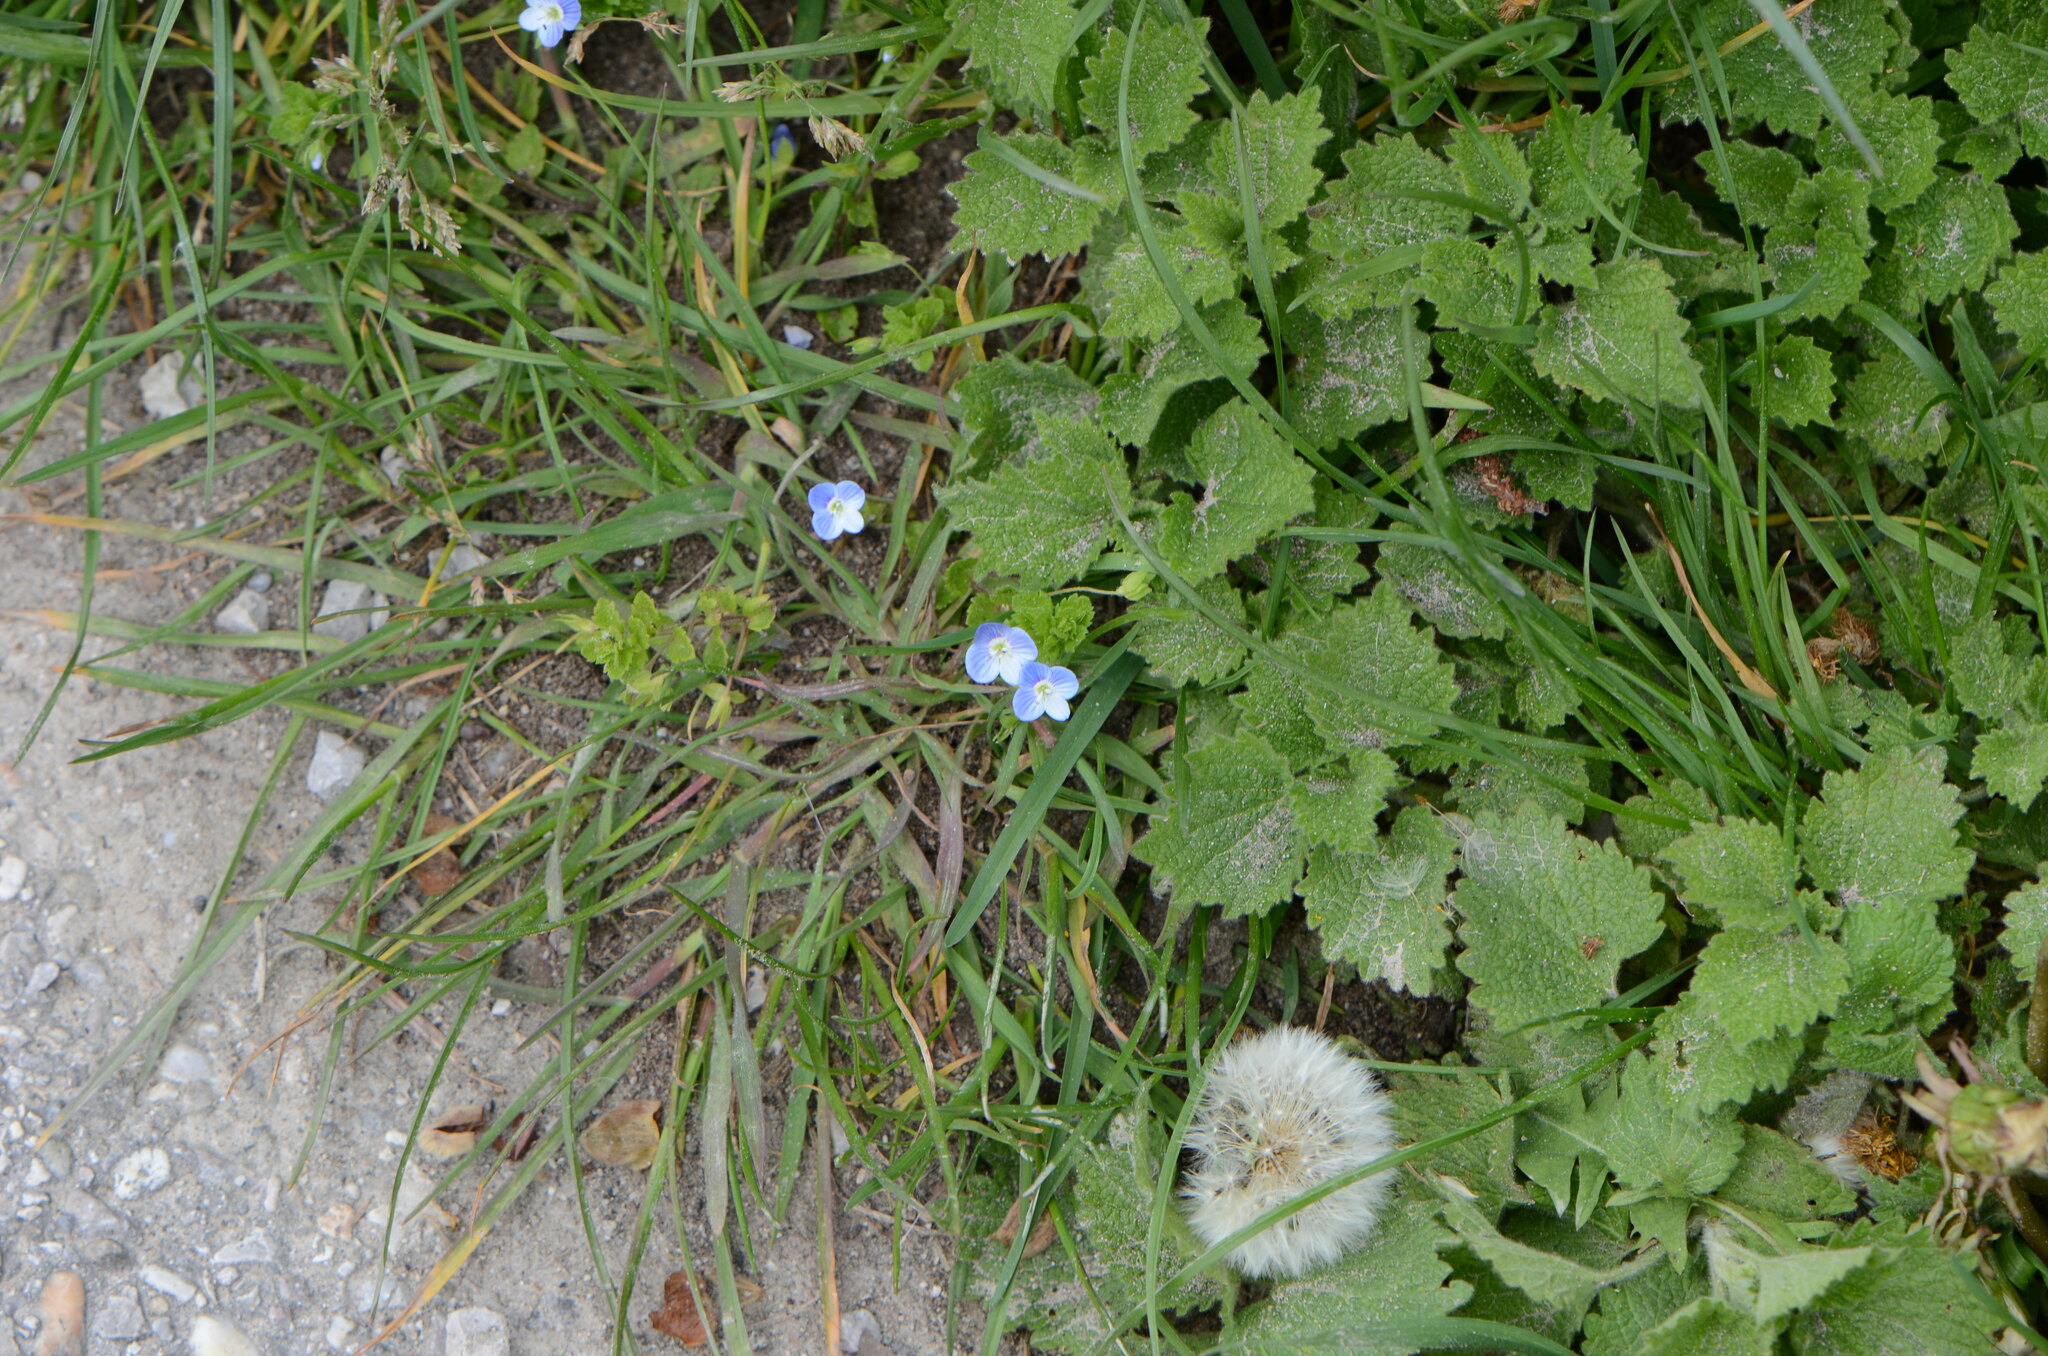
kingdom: Plantae
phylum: Tracheophyta
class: Magnoliopsida
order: Lamiales
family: Plantaginaceae
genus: Veronica
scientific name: Veronica persica
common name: Common field-speedwell
